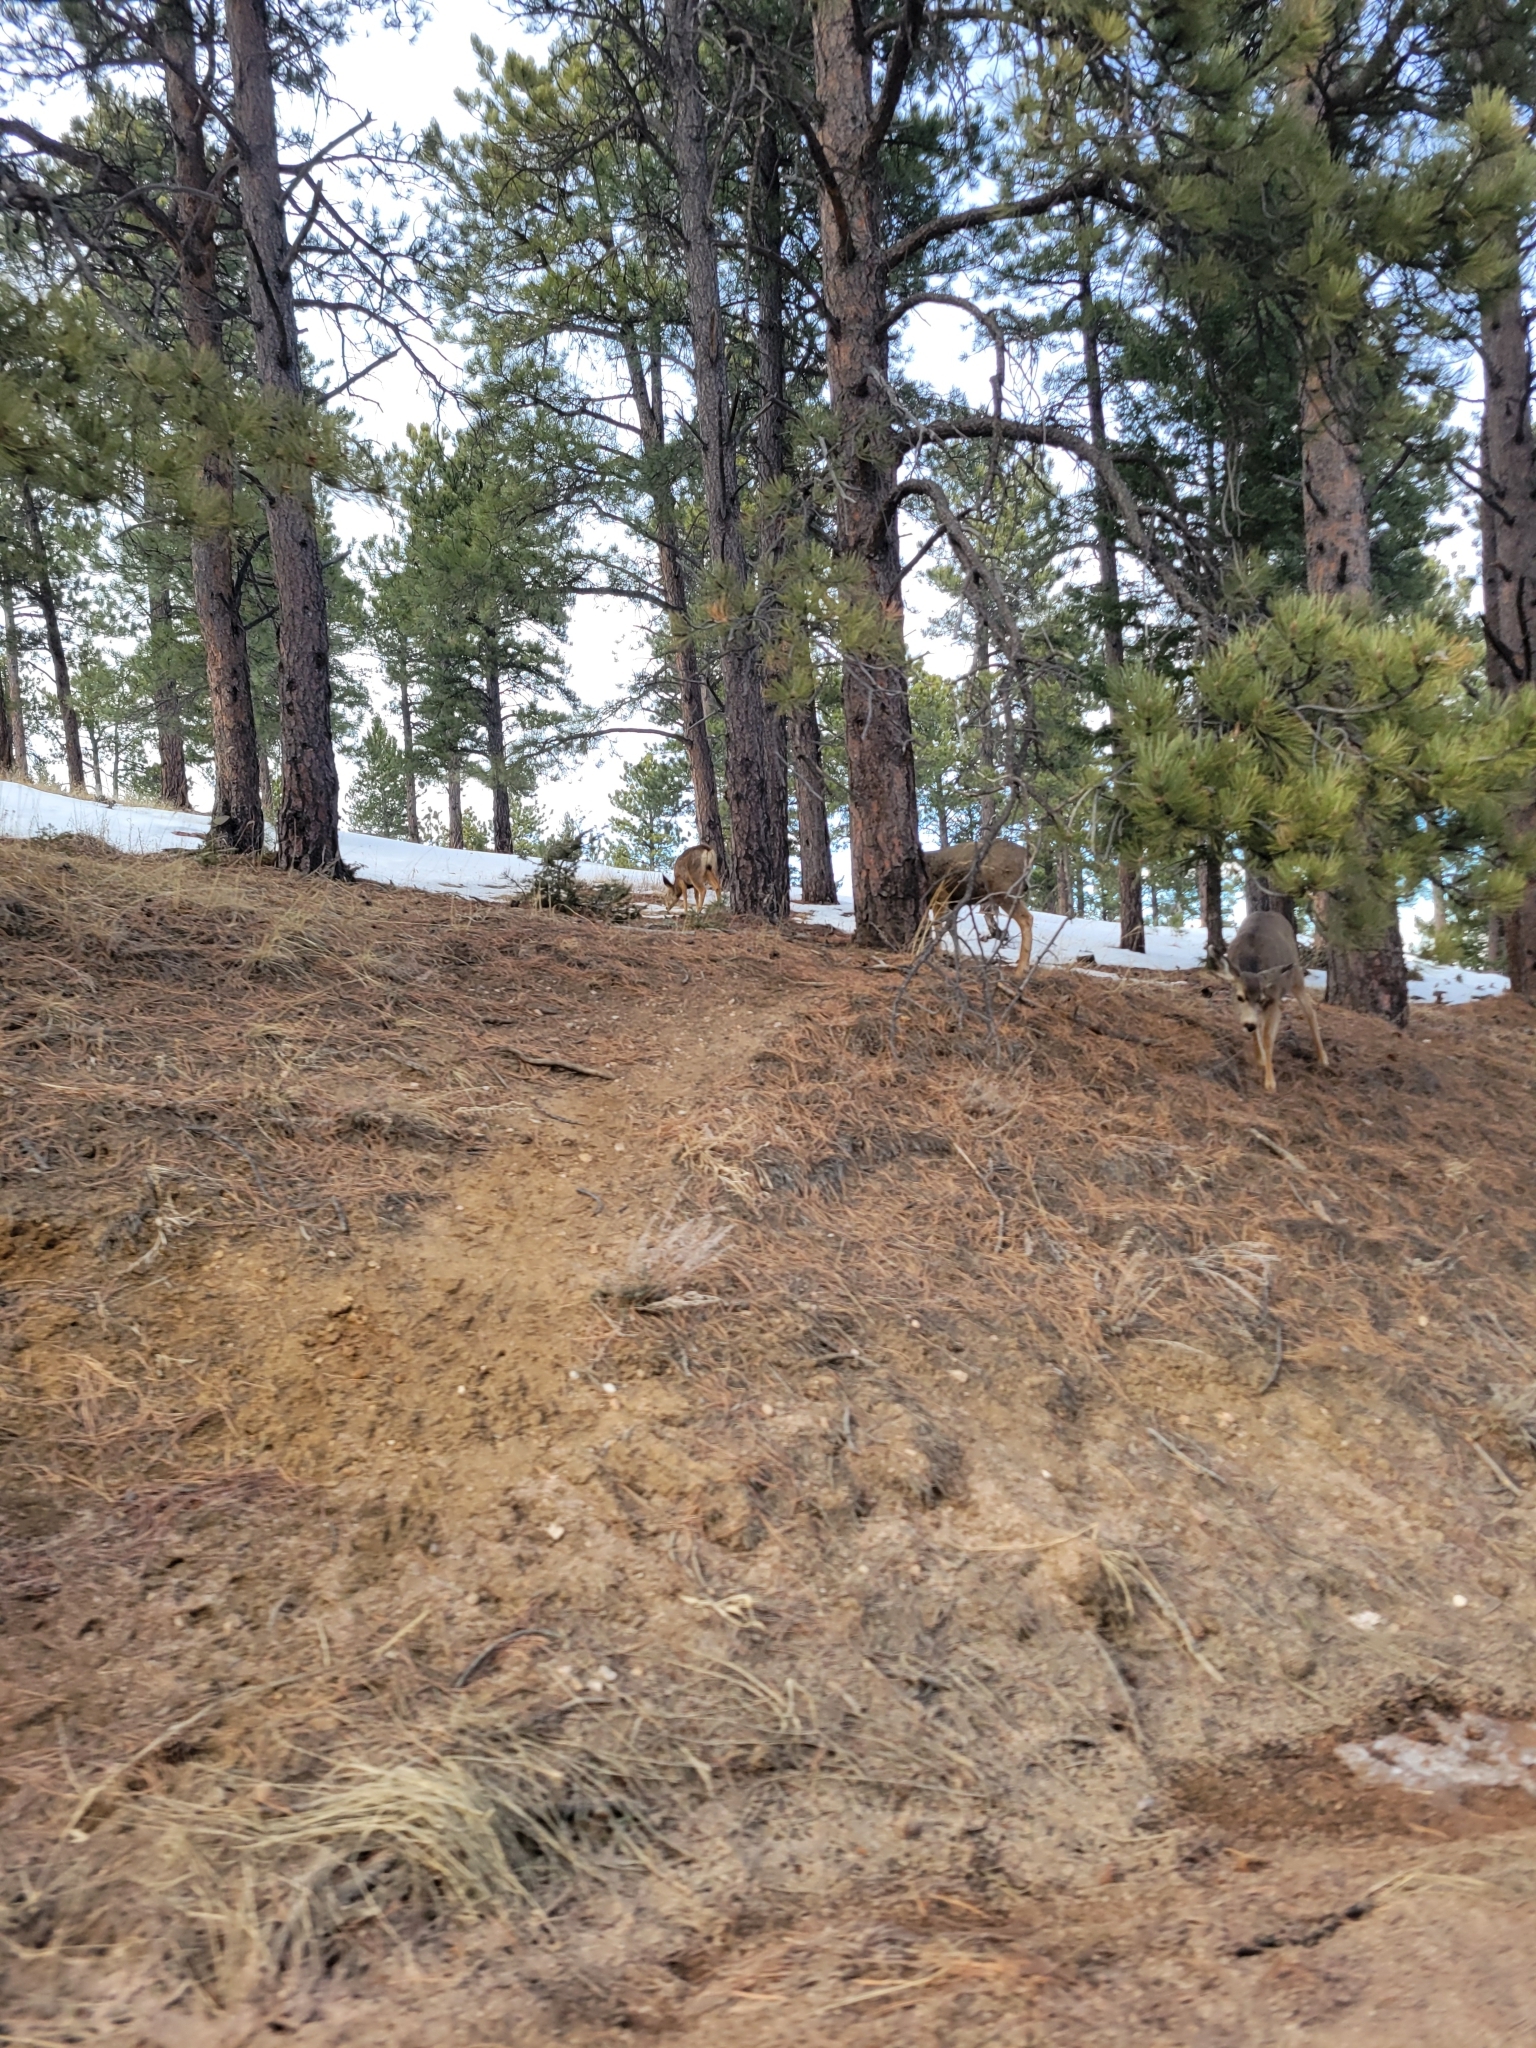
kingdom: Animalia
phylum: Chordata
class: Mammalia
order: Artiodactyla
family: Cervidae
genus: Odocoileus
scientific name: Odocoileus hemionus
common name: Mule deer
